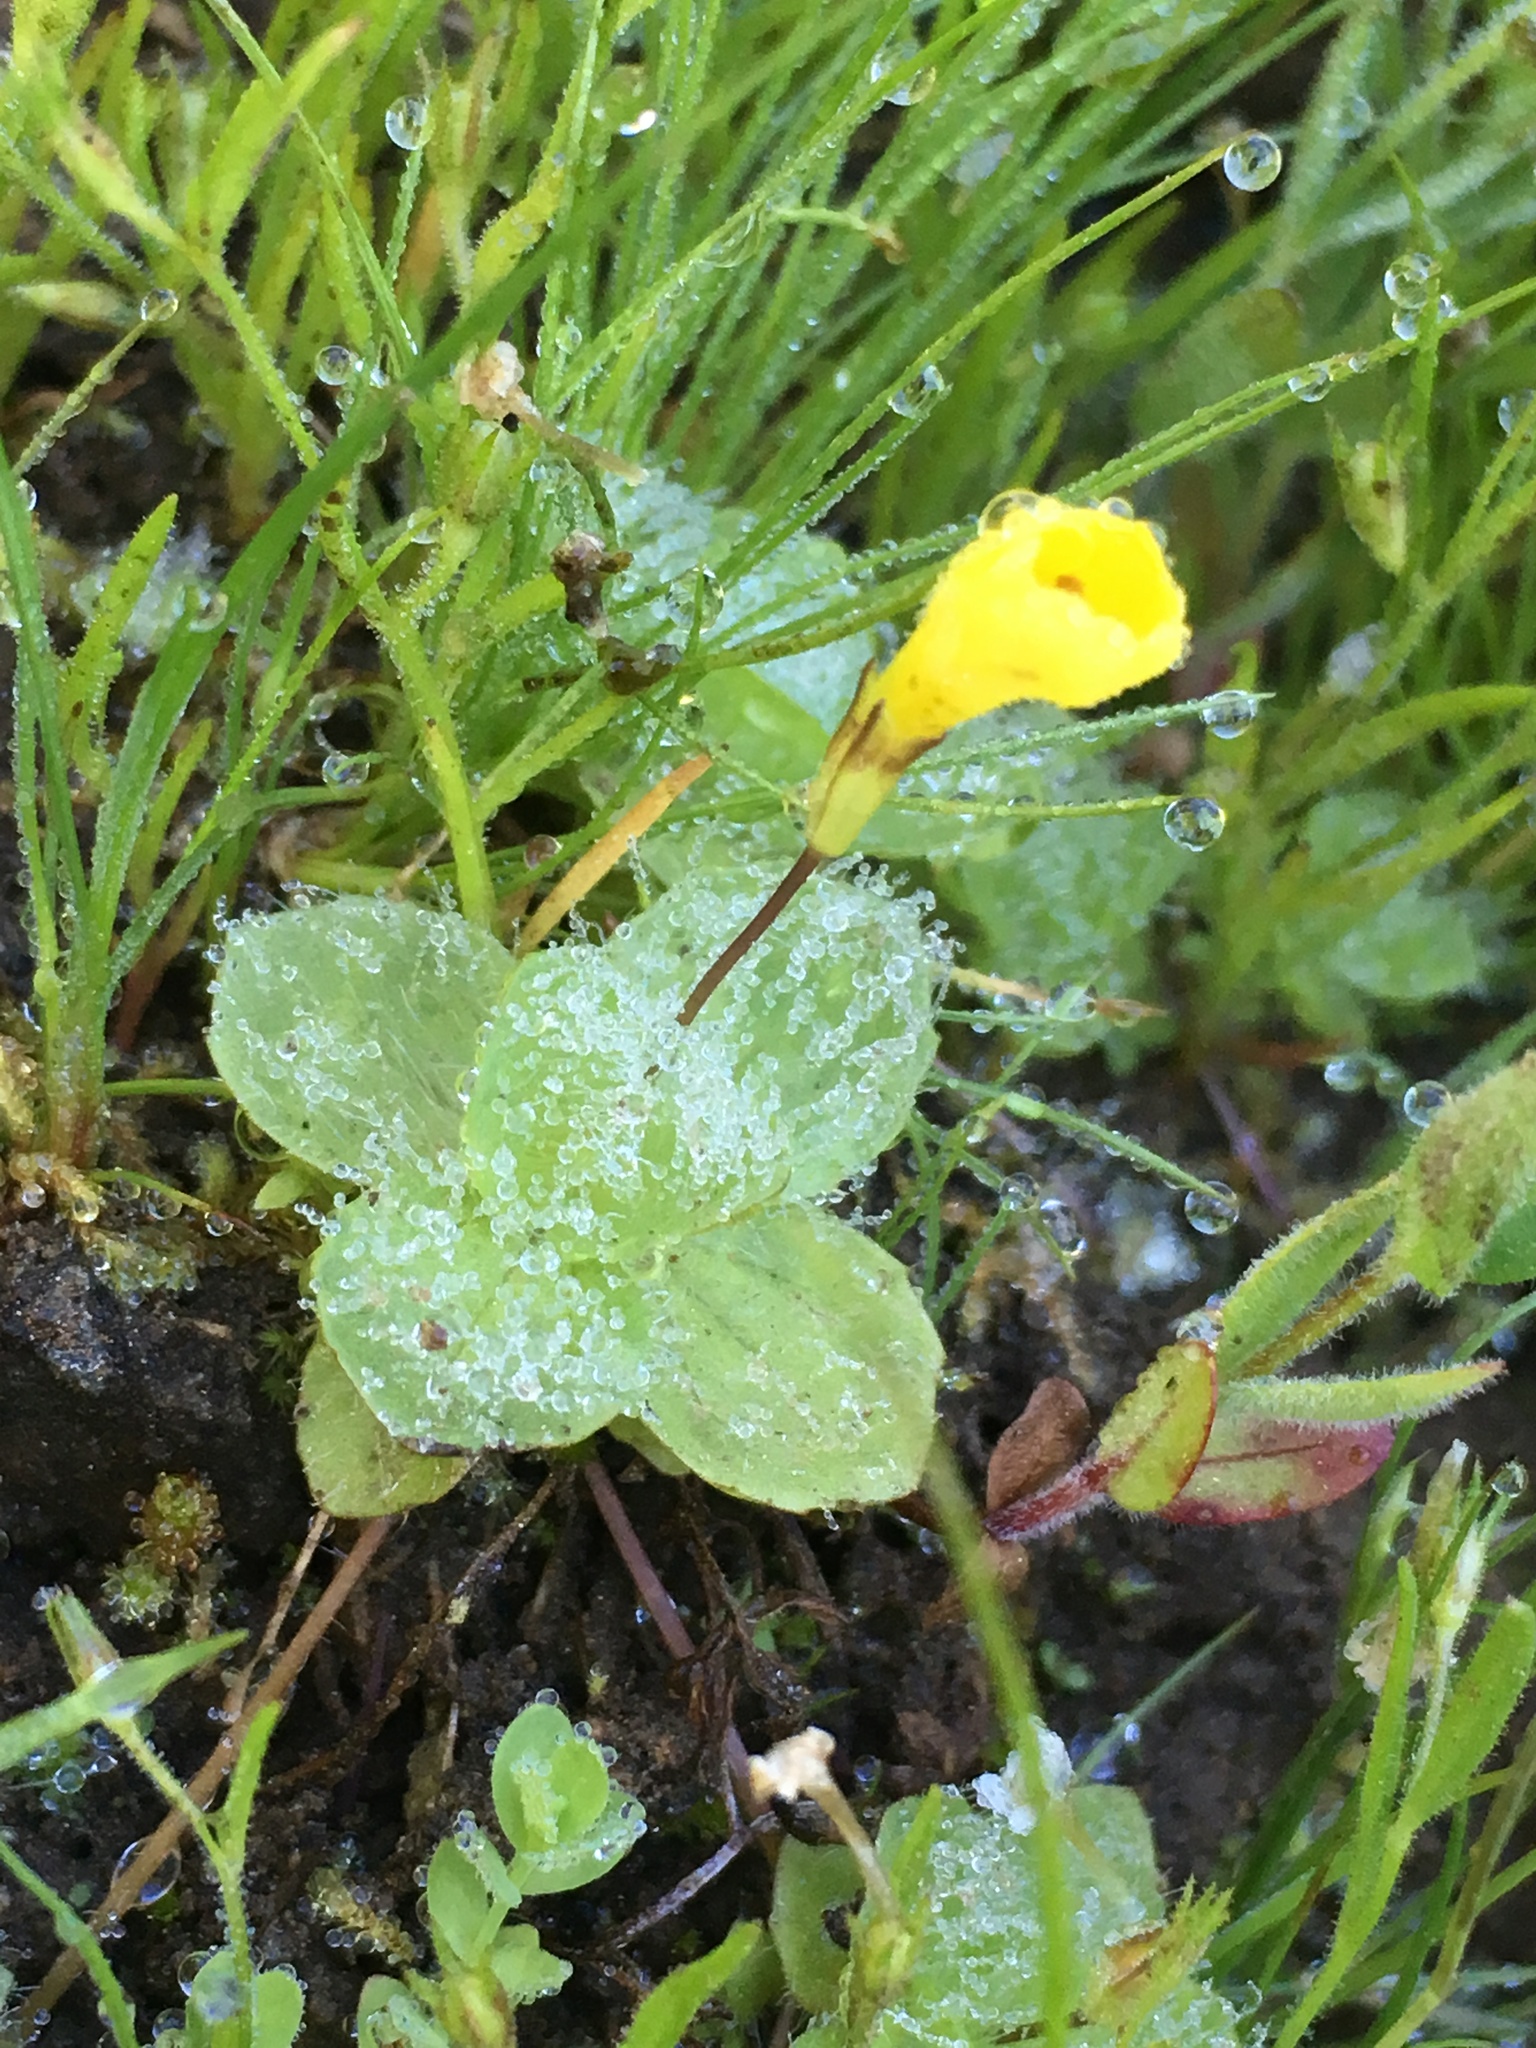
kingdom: Plantae
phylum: Tracheophyta
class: Magnoliopsida
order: Lamiales
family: Phrymaceae
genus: Erythranthe
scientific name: Erythranthe primuloides
